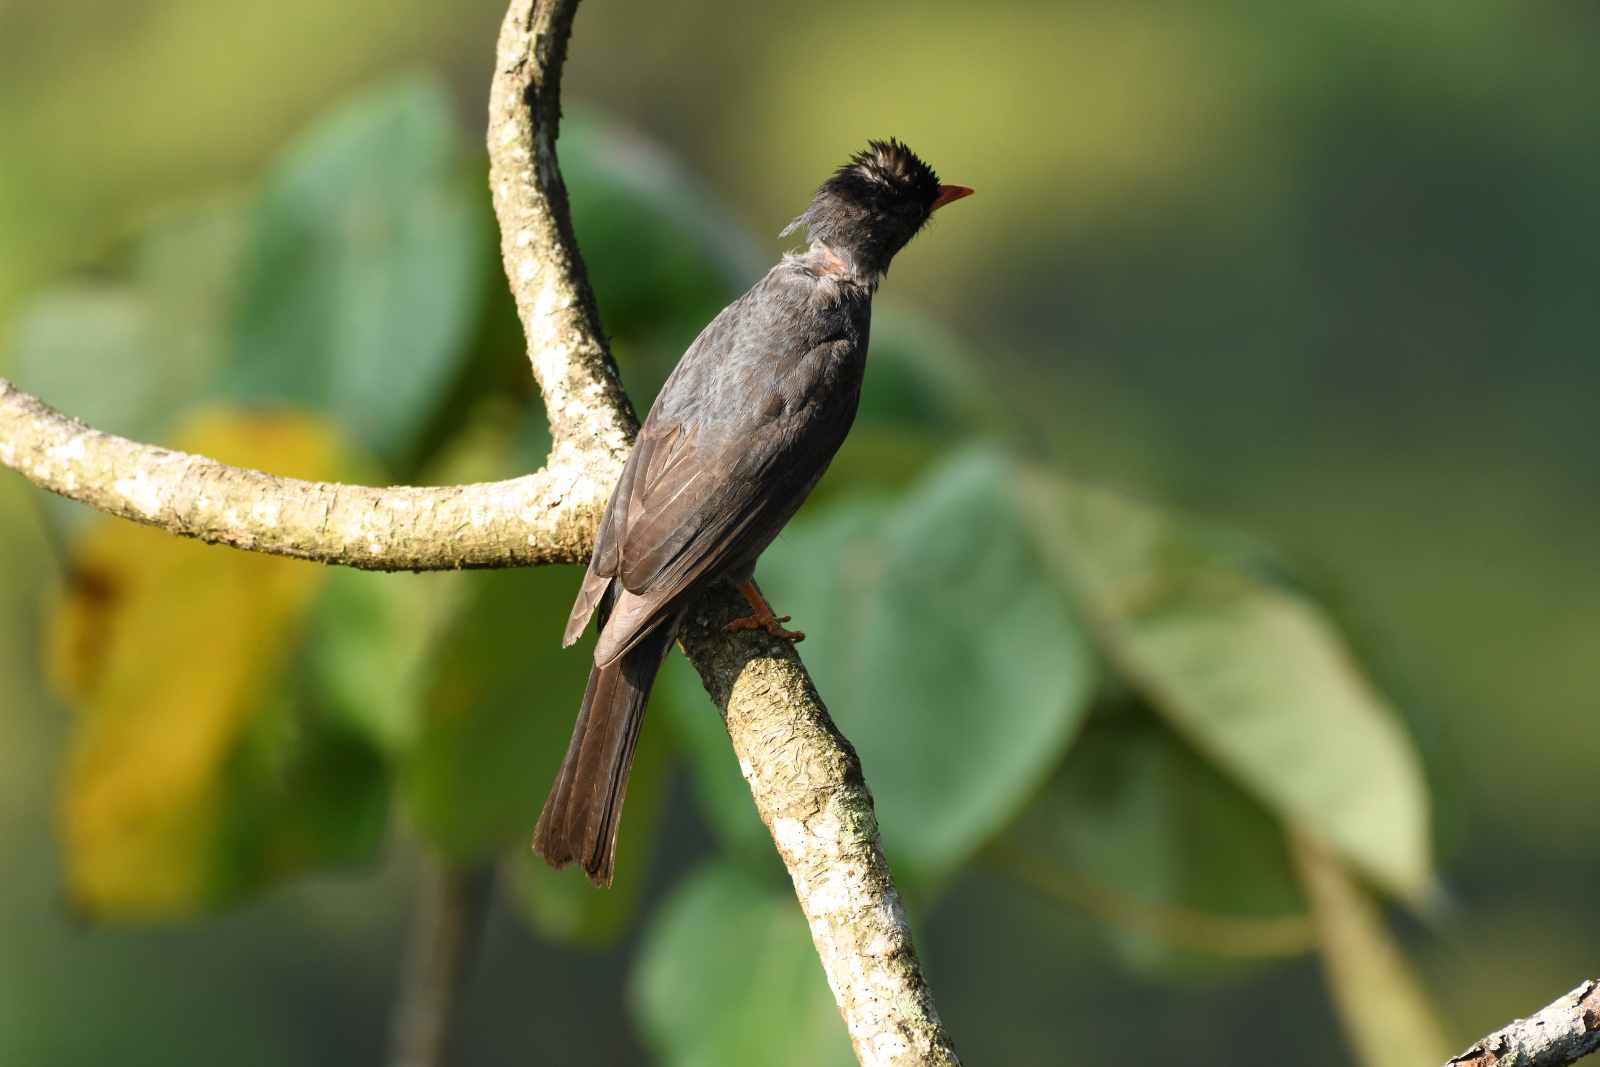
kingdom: Animalia
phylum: Chordata
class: Aves
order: Passeriformes
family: Pycnonotidae
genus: Hypsipetes
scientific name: Hypsipetes ganeesa
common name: Square-tailed bulbul
